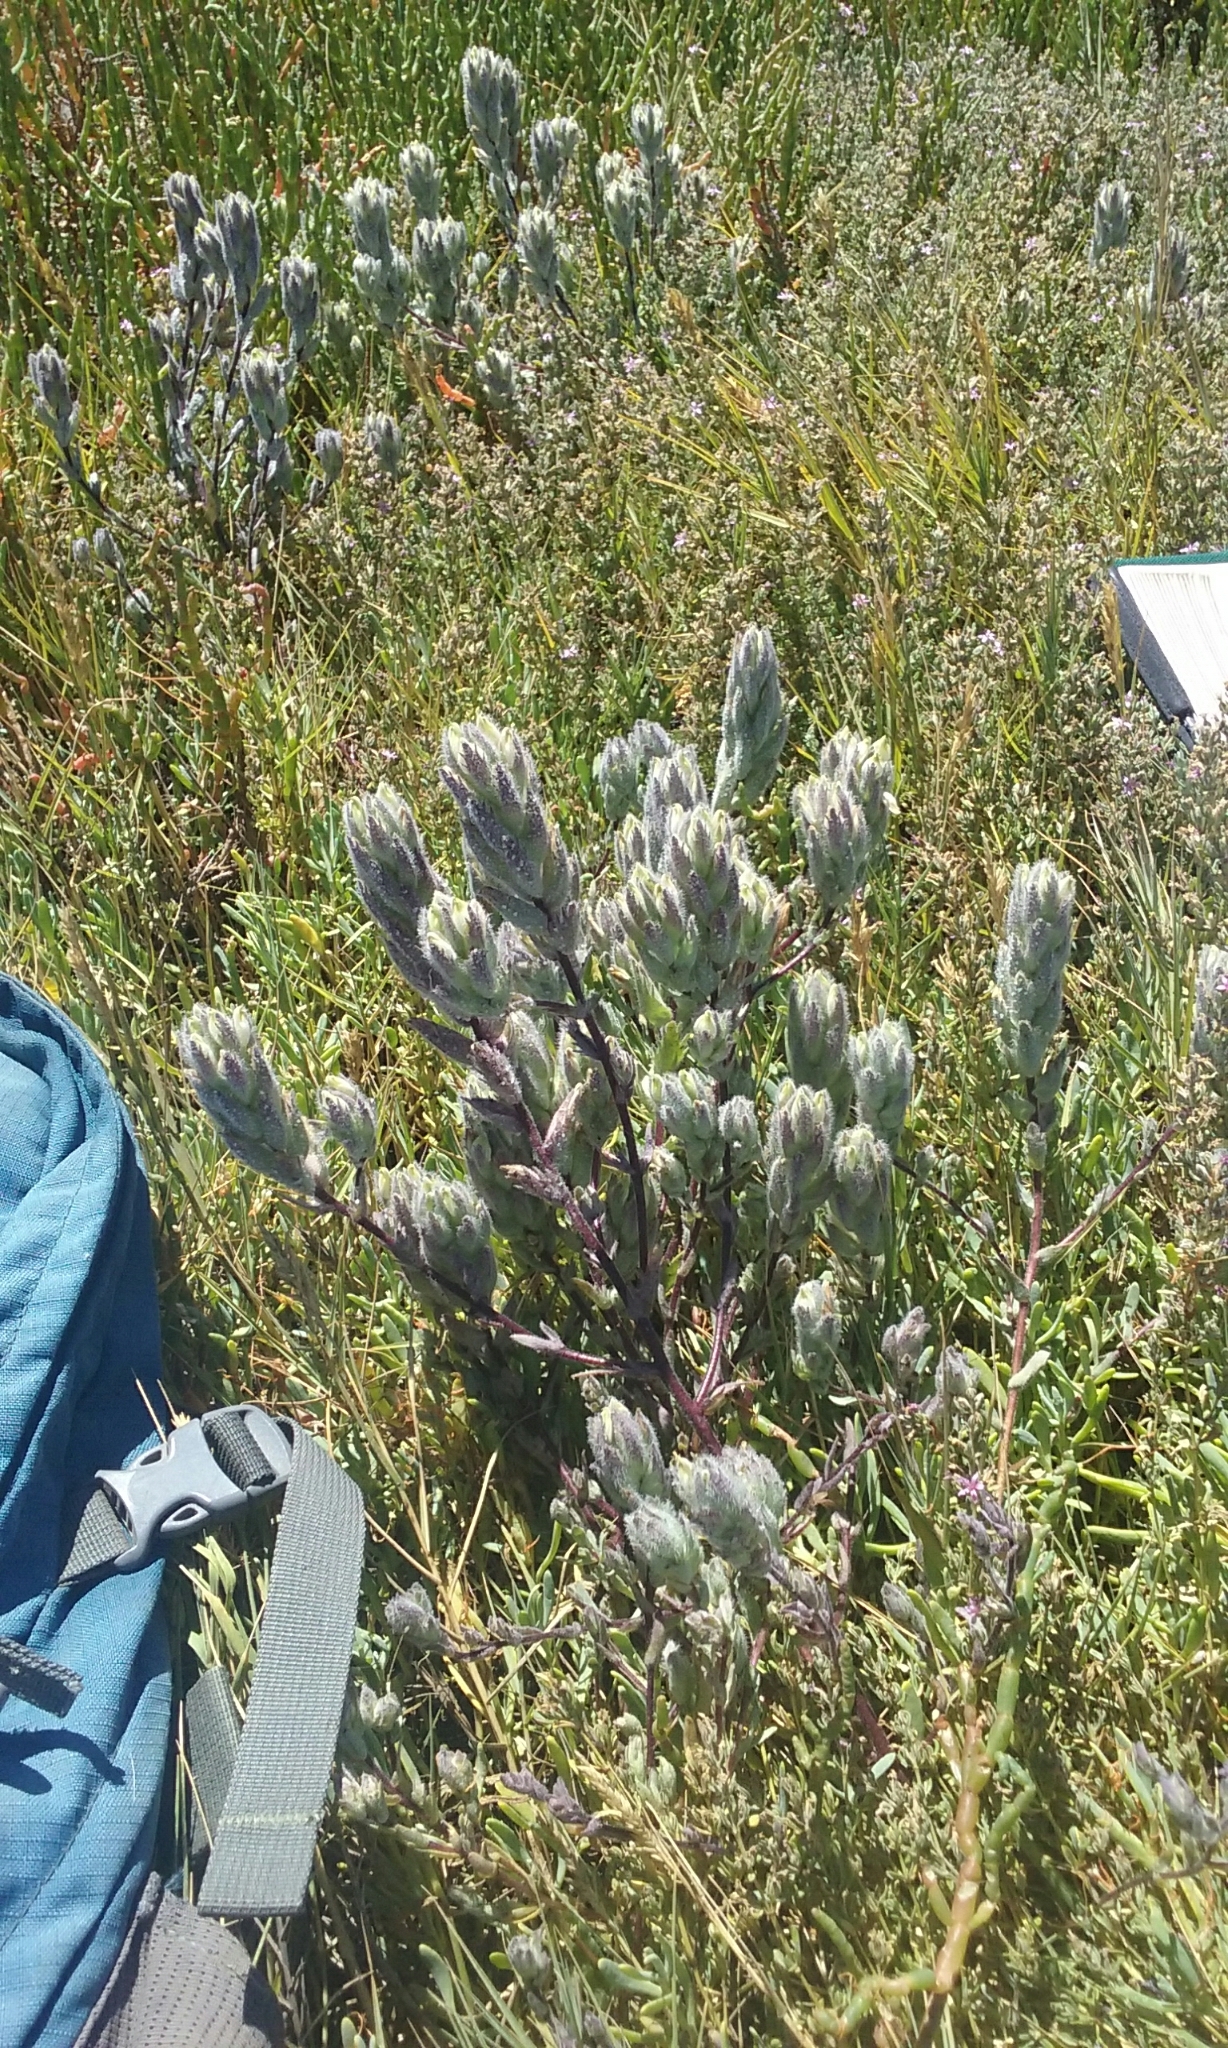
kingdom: Plantae
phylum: Tracheophyta
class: Magnoliopsida
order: Lamiales
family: Orobanchaceae
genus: Chloropyron
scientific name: Chloropyron molle
